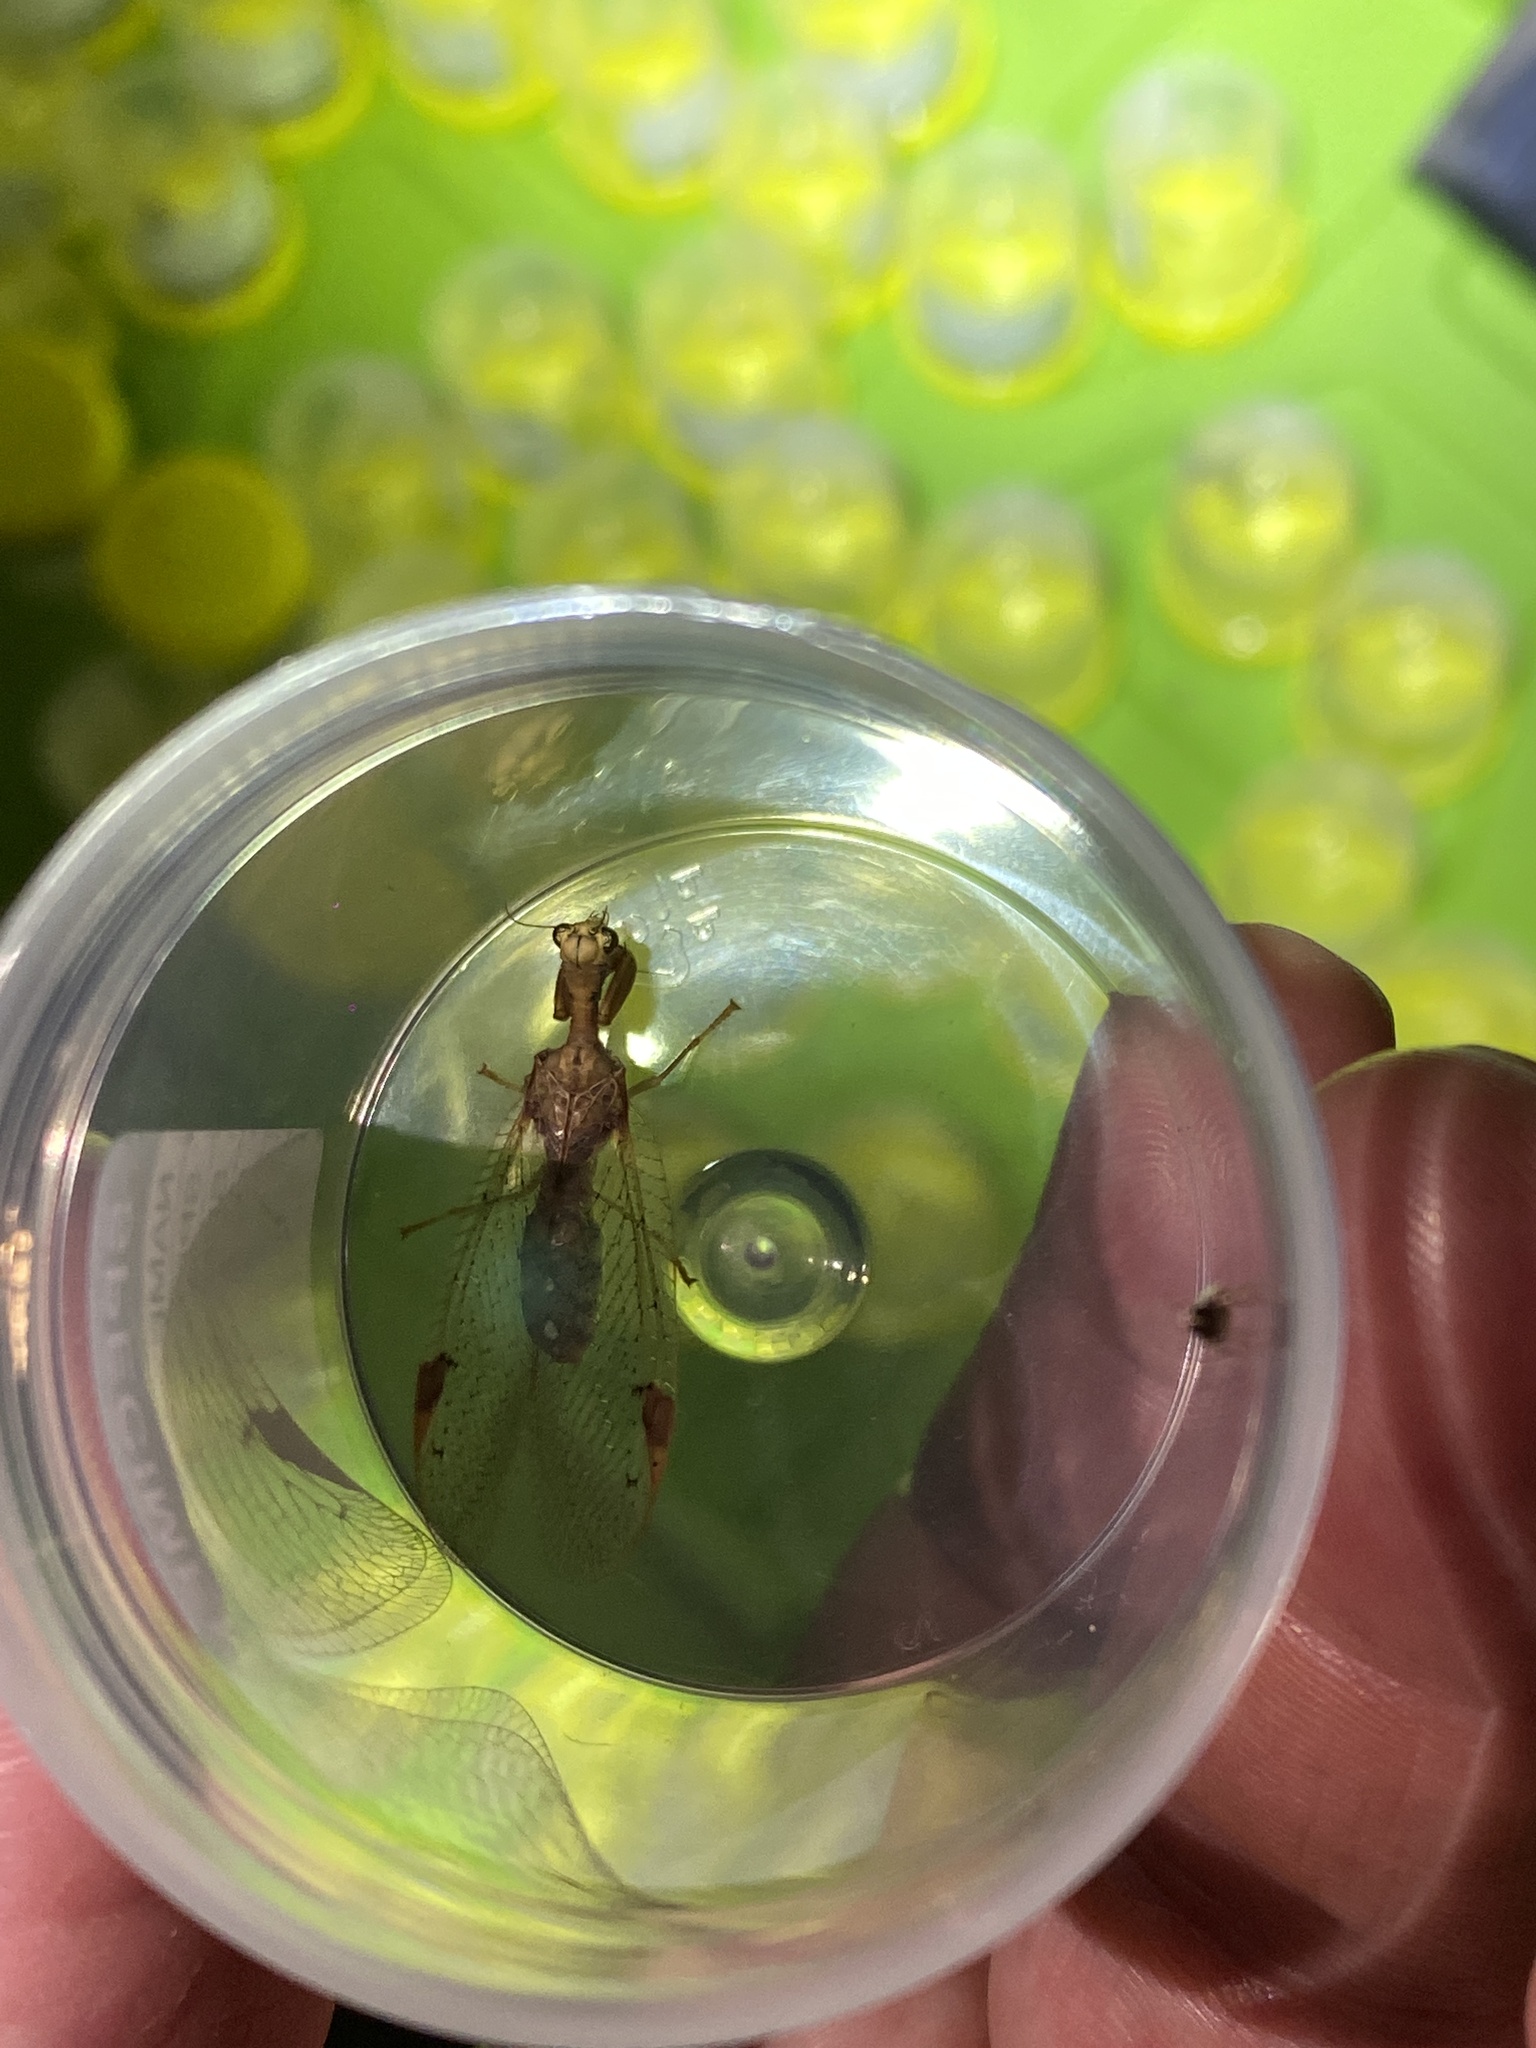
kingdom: Animalia
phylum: Arthropoda
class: Insecta
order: Neuroptera
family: Mantispidae
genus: Ditaxis
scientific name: Ditaxis biseriata
